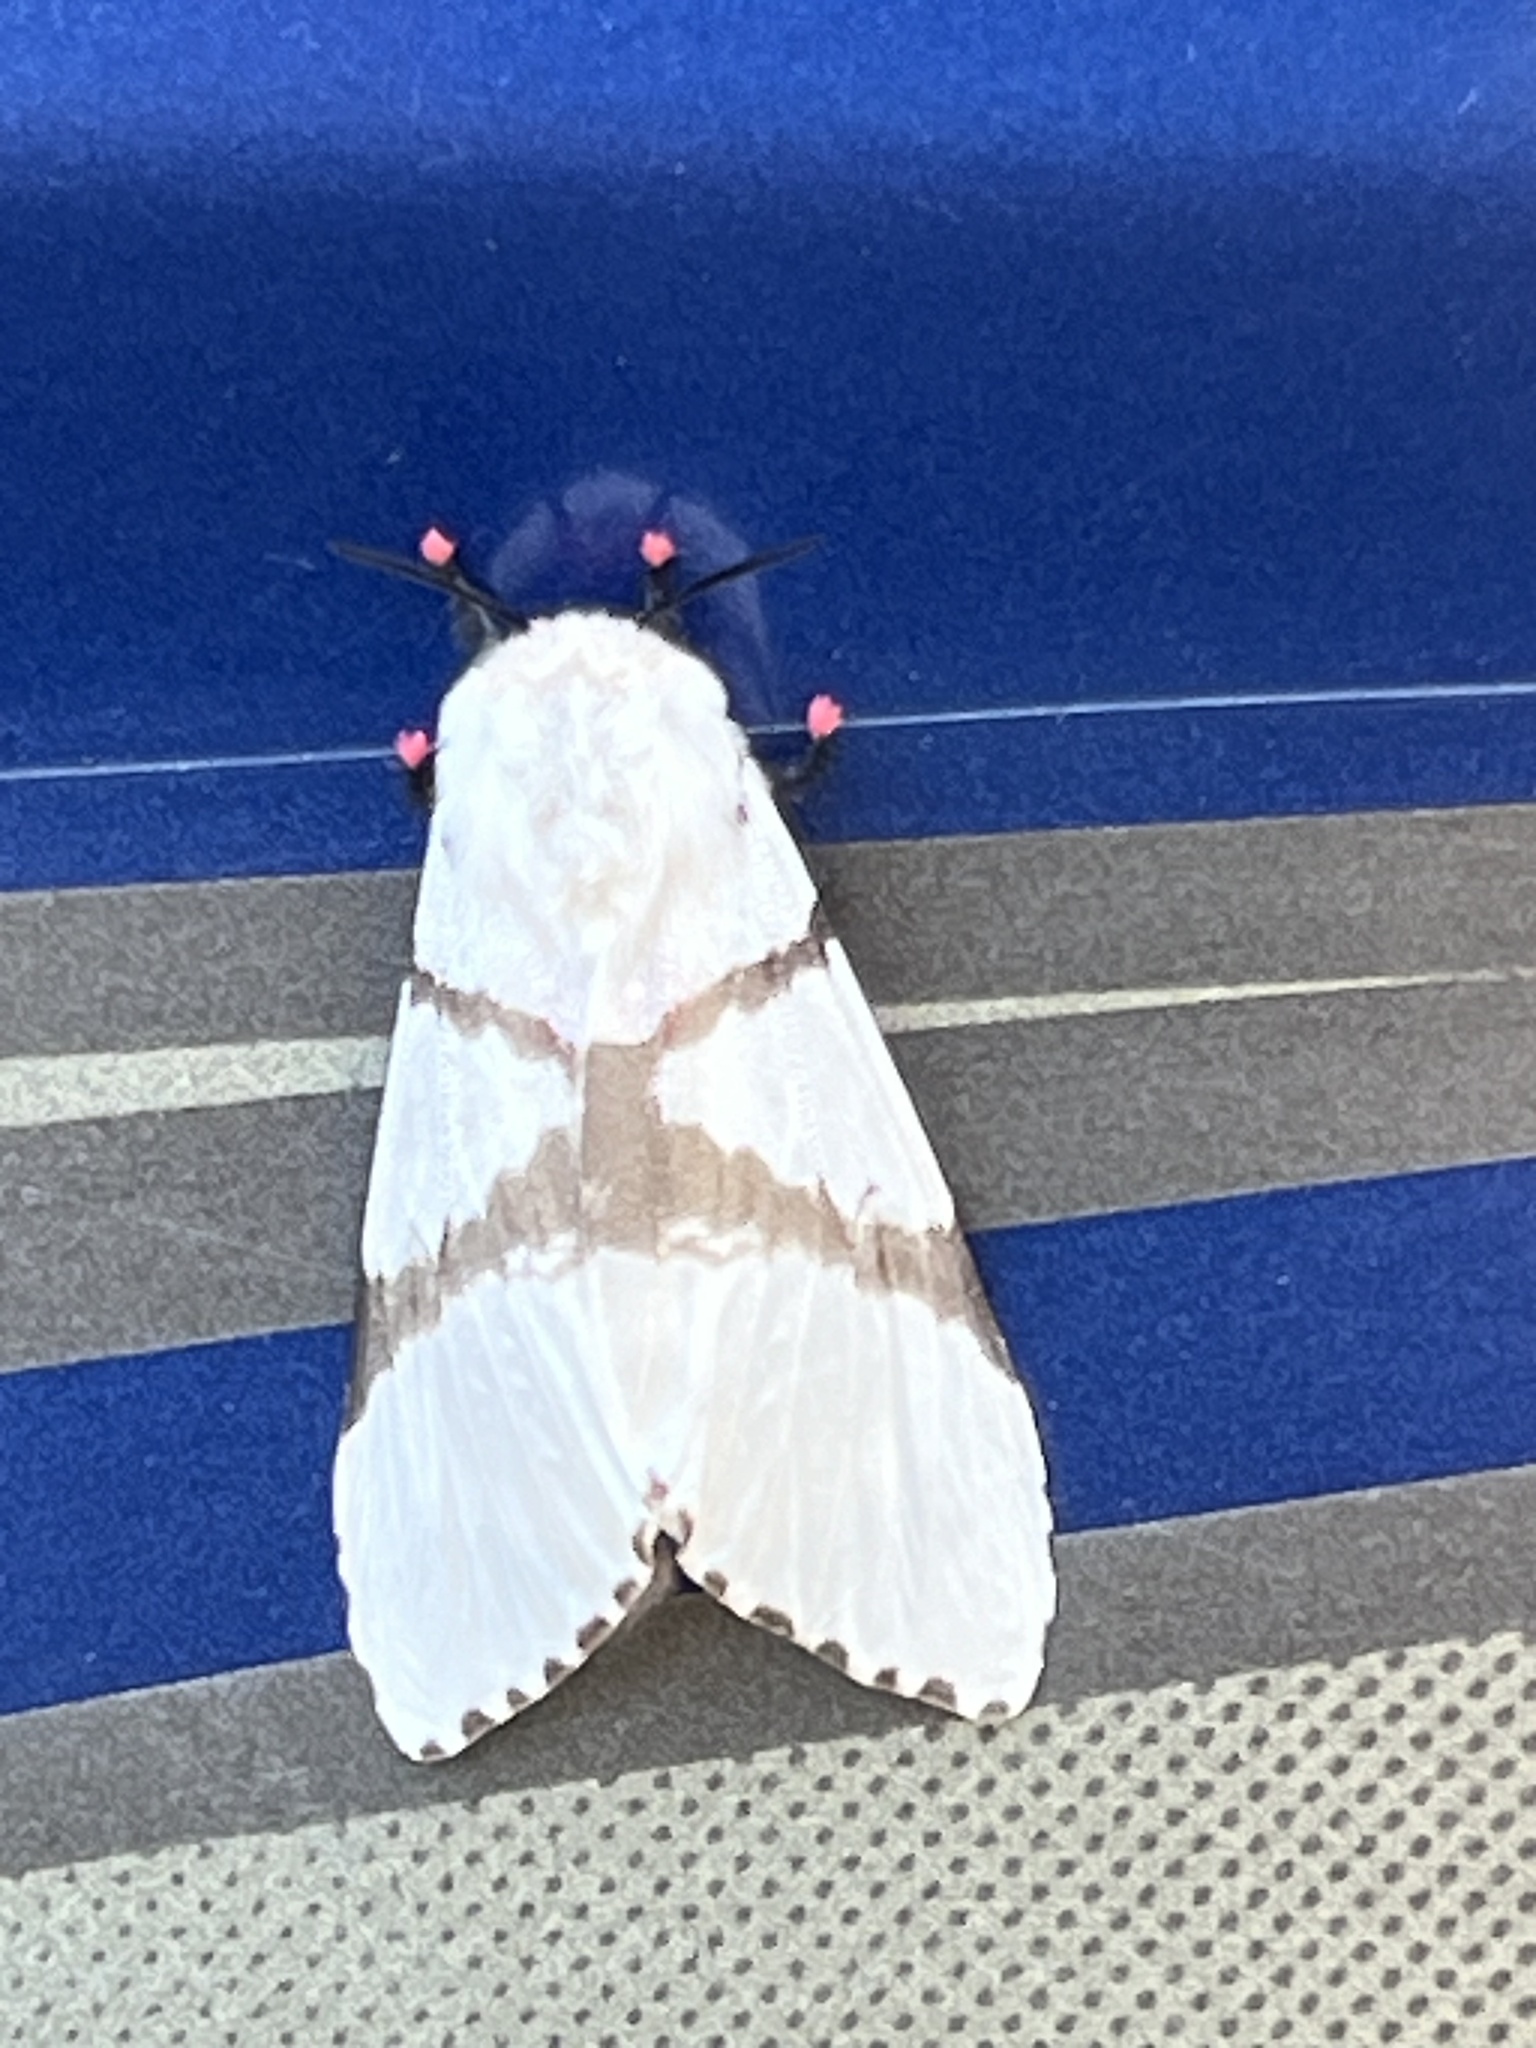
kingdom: Animalia
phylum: Arthropoda
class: Insecta
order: Lepidoptera
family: Erebidae
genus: Lymantria
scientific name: Lymantria bivittata
